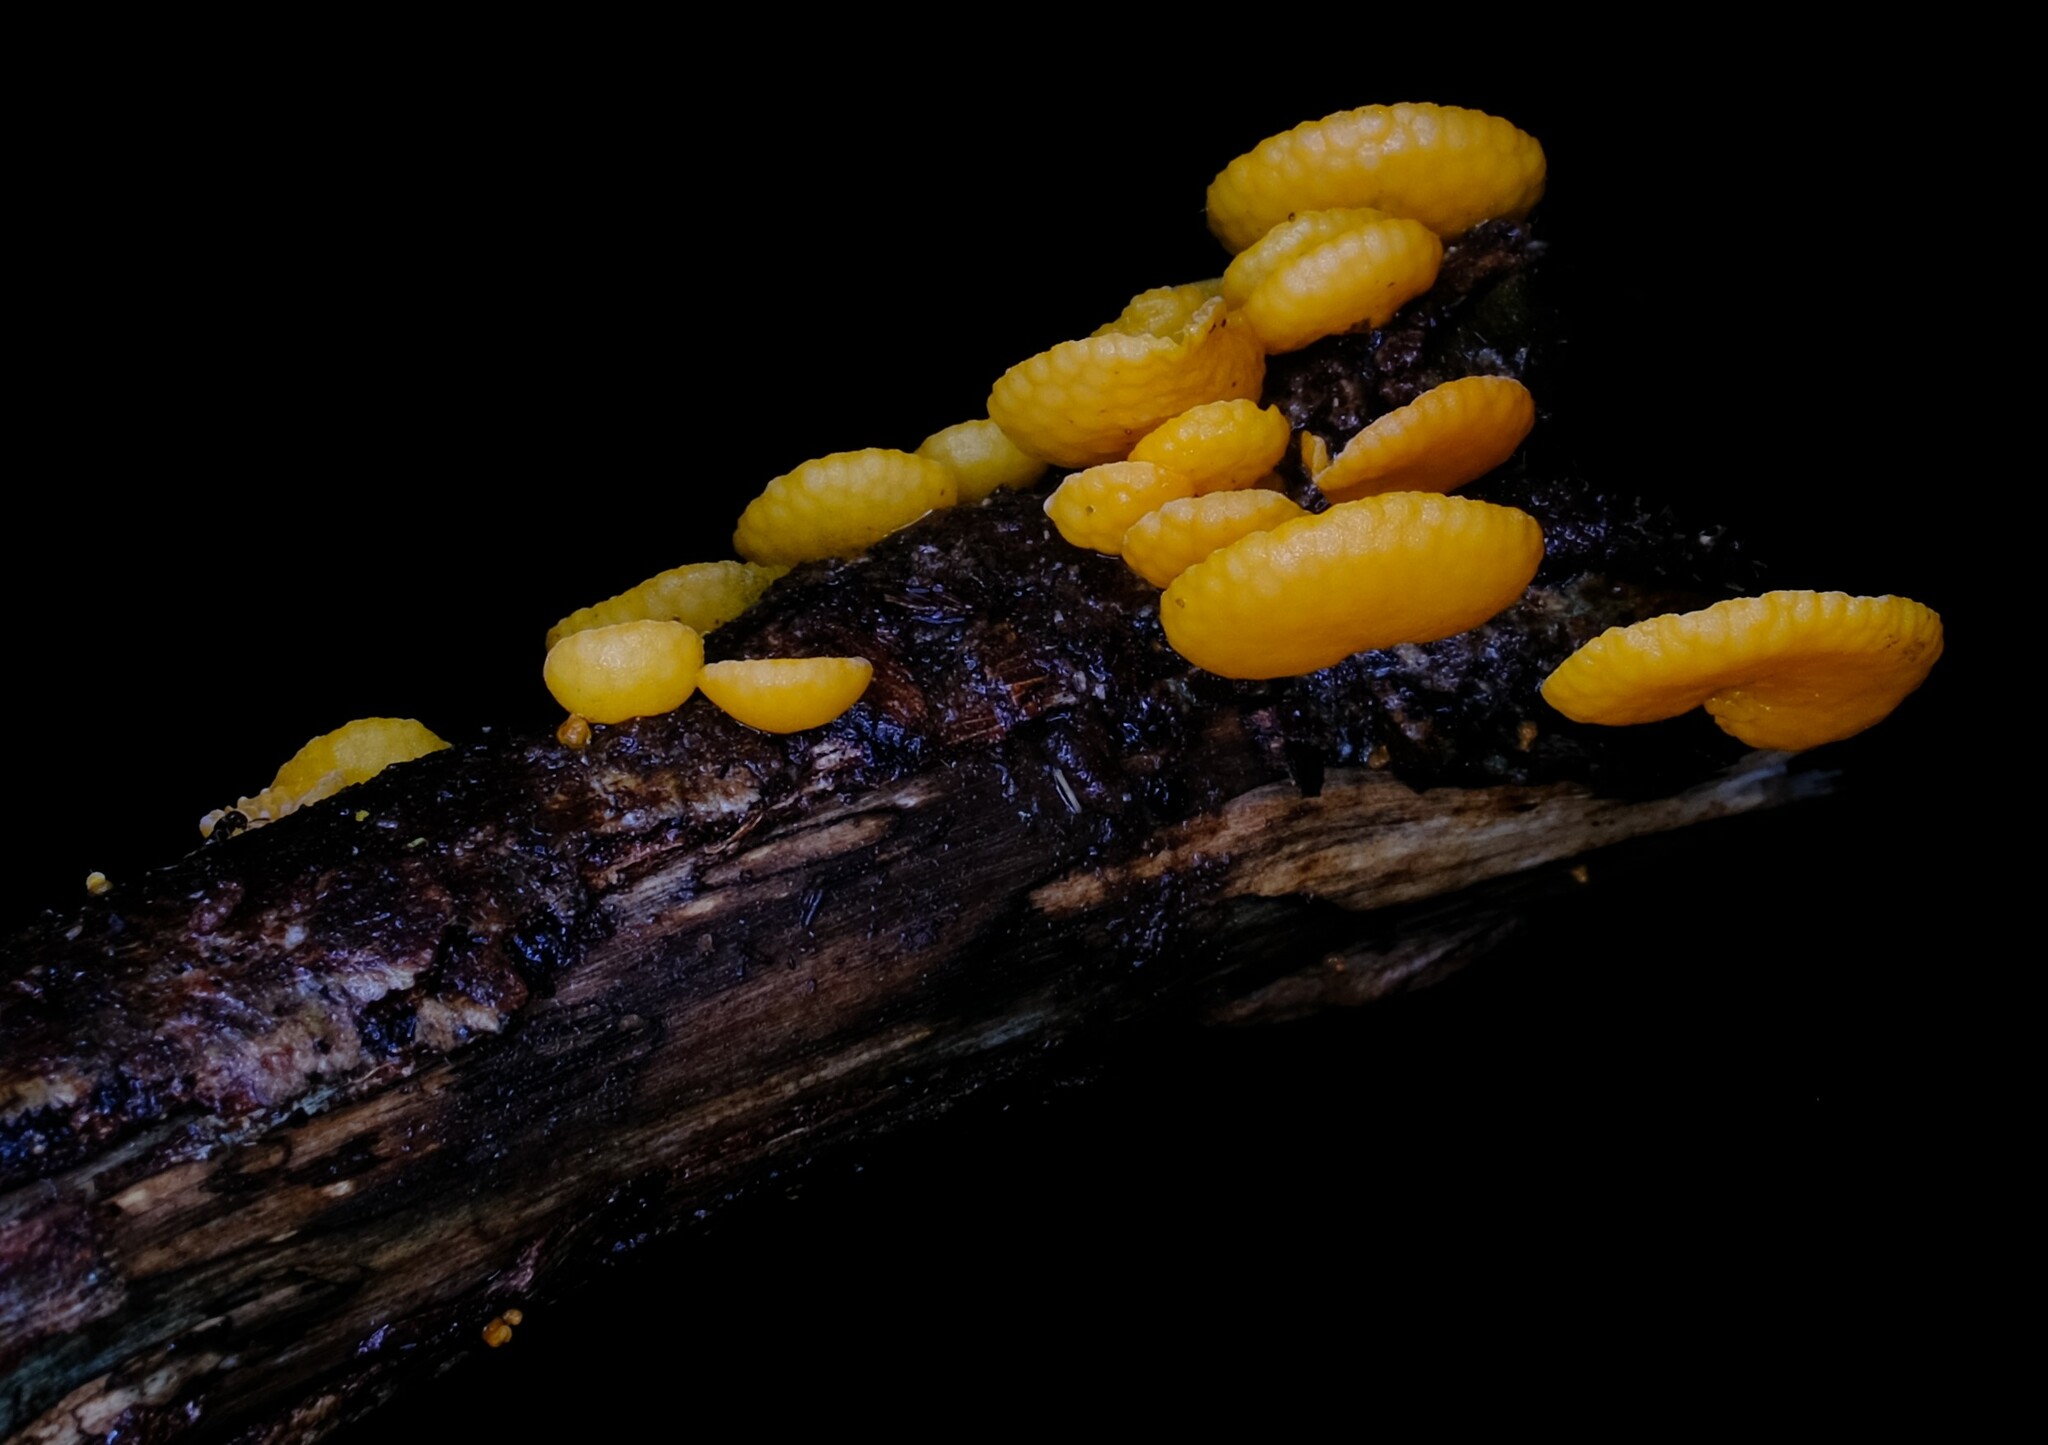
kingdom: Fungi
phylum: Basidiomycota
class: Agaricomycetes
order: Agaricales
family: Mycenaceae
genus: Favolaschia
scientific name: Favolaschia claudopus
